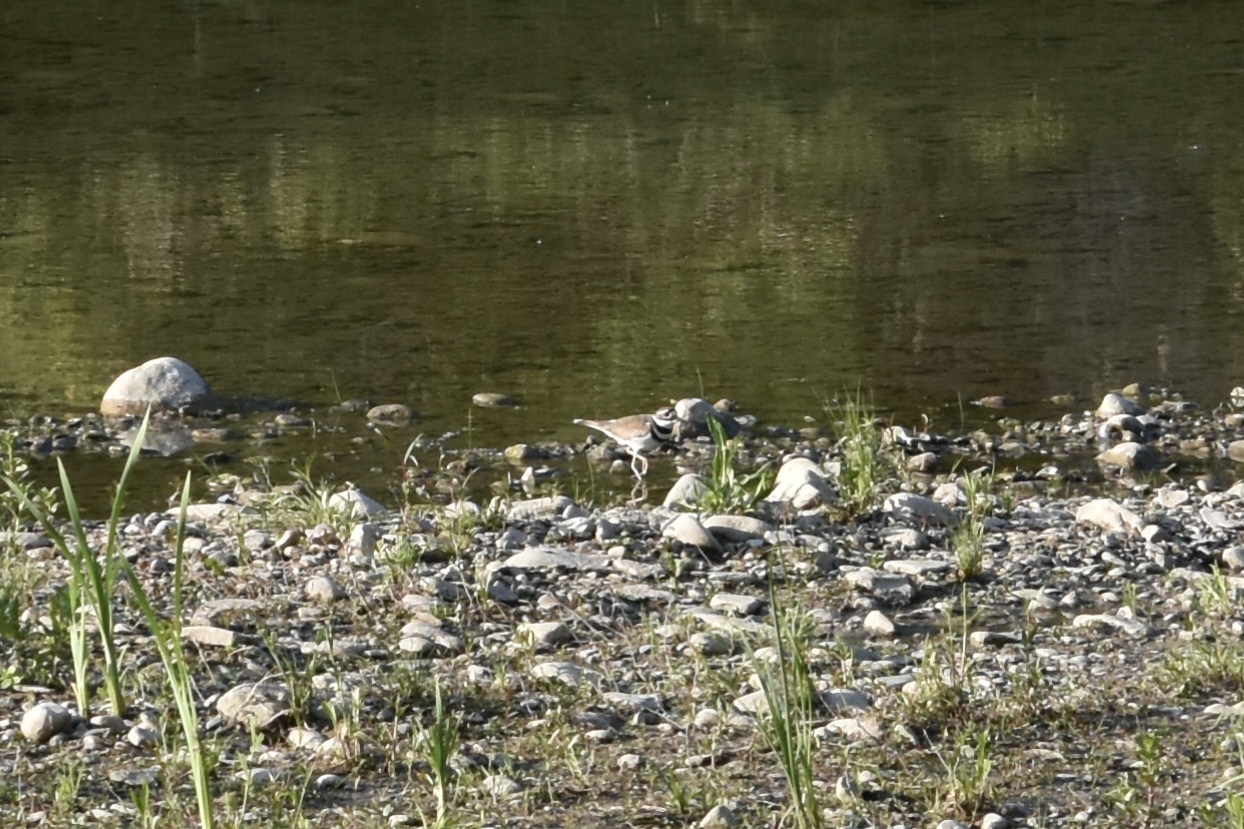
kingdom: Animalia
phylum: Chordata
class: Aves
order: Charadriiformes
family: Charadriidae
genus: Charadrius
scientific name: Charadrius vociferus
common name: Killdeer
